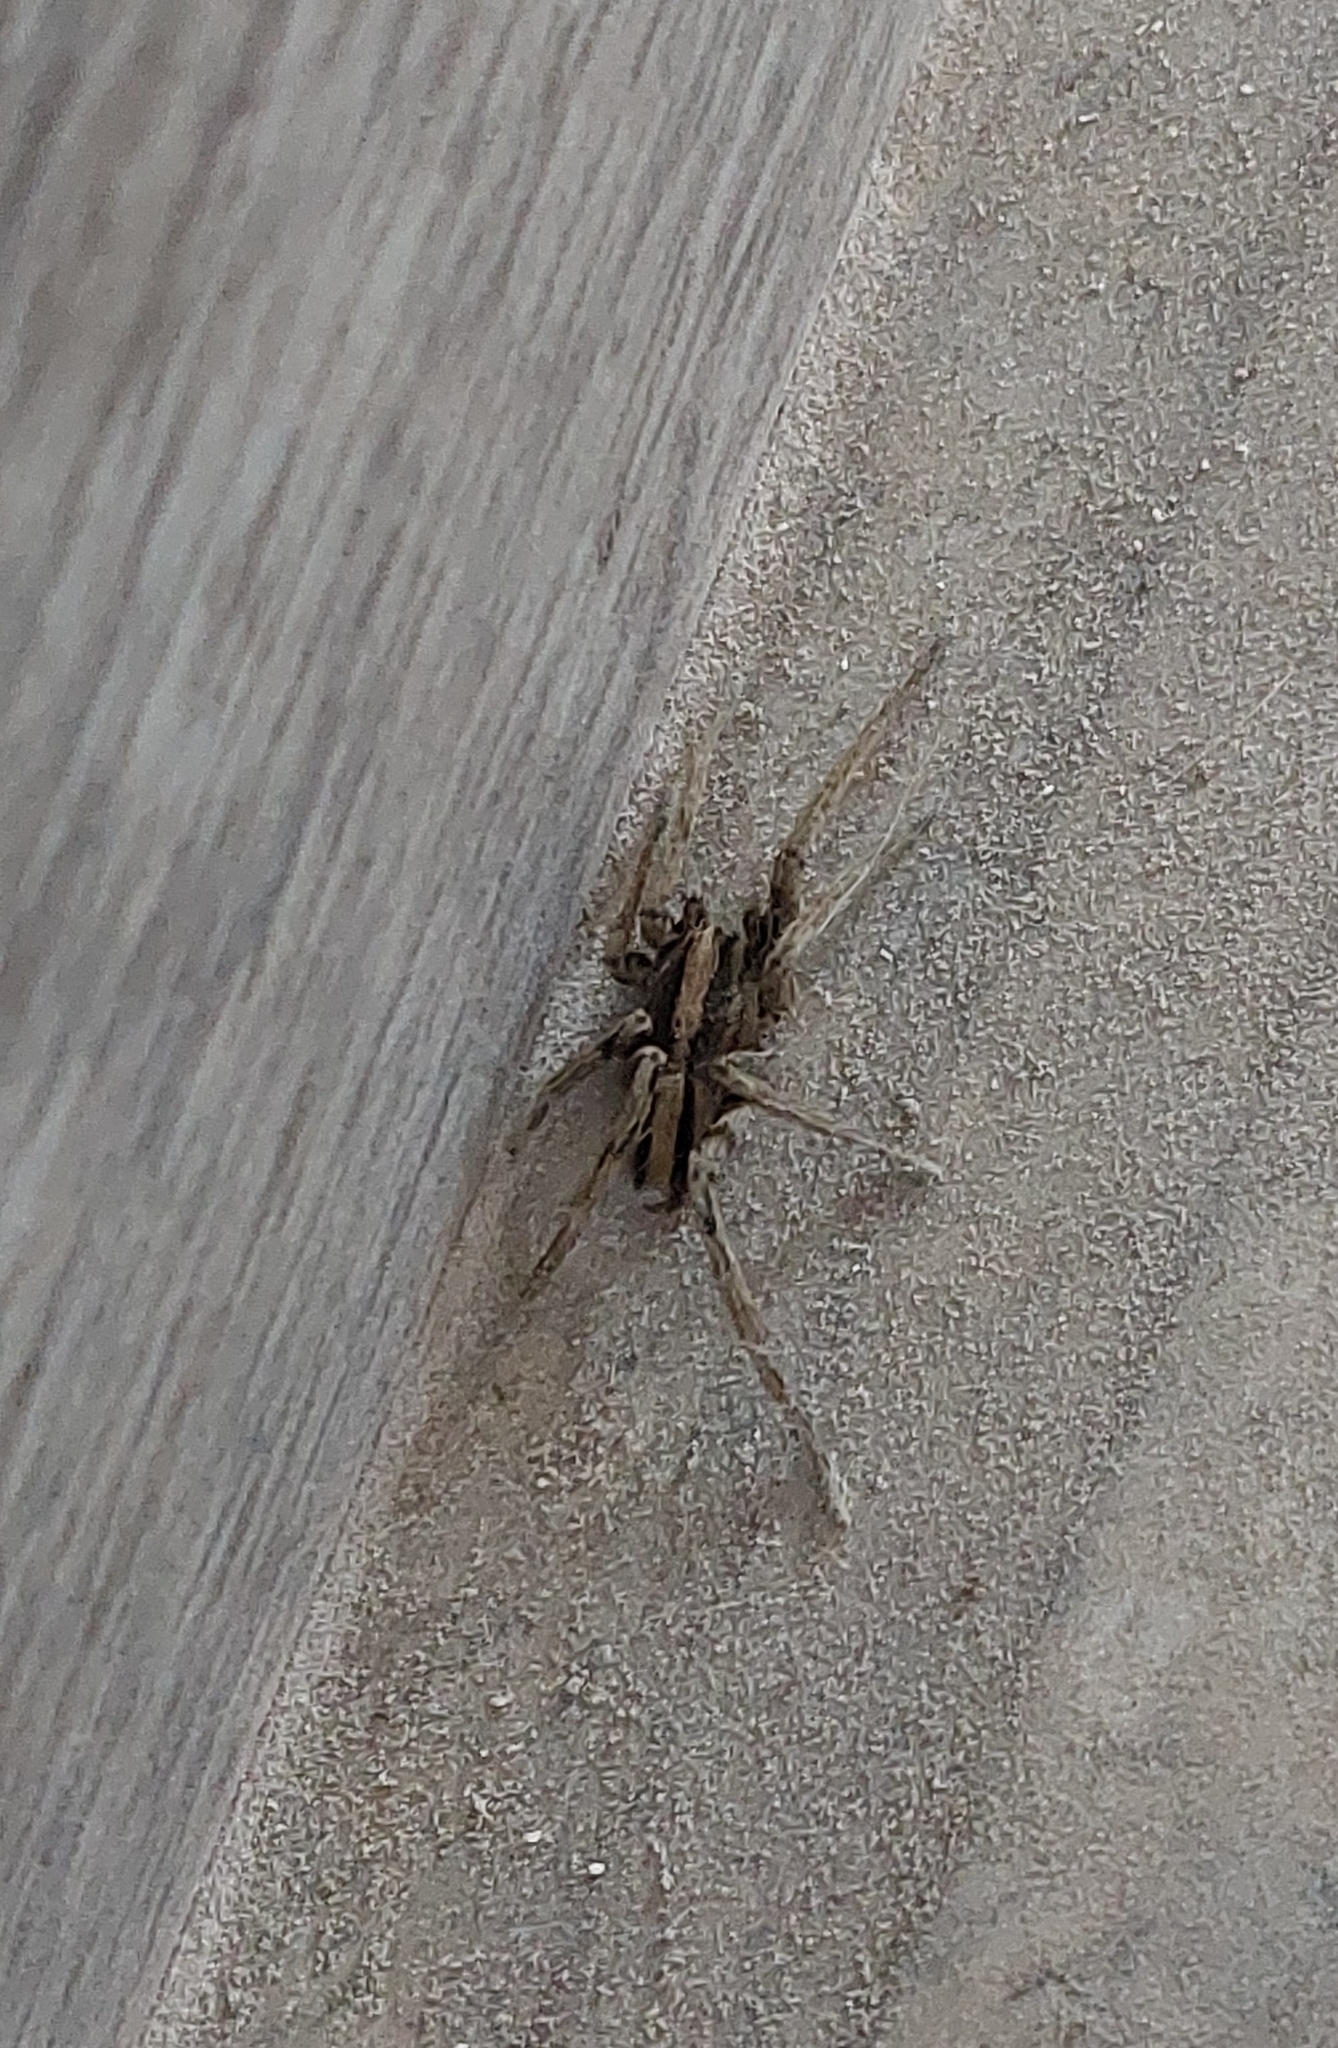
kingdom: Animalia
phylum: Arthropoda
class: Arachnida
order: Araneae
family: Ctenidae
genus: Parabatinga
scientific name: Parabatinga brevipes
